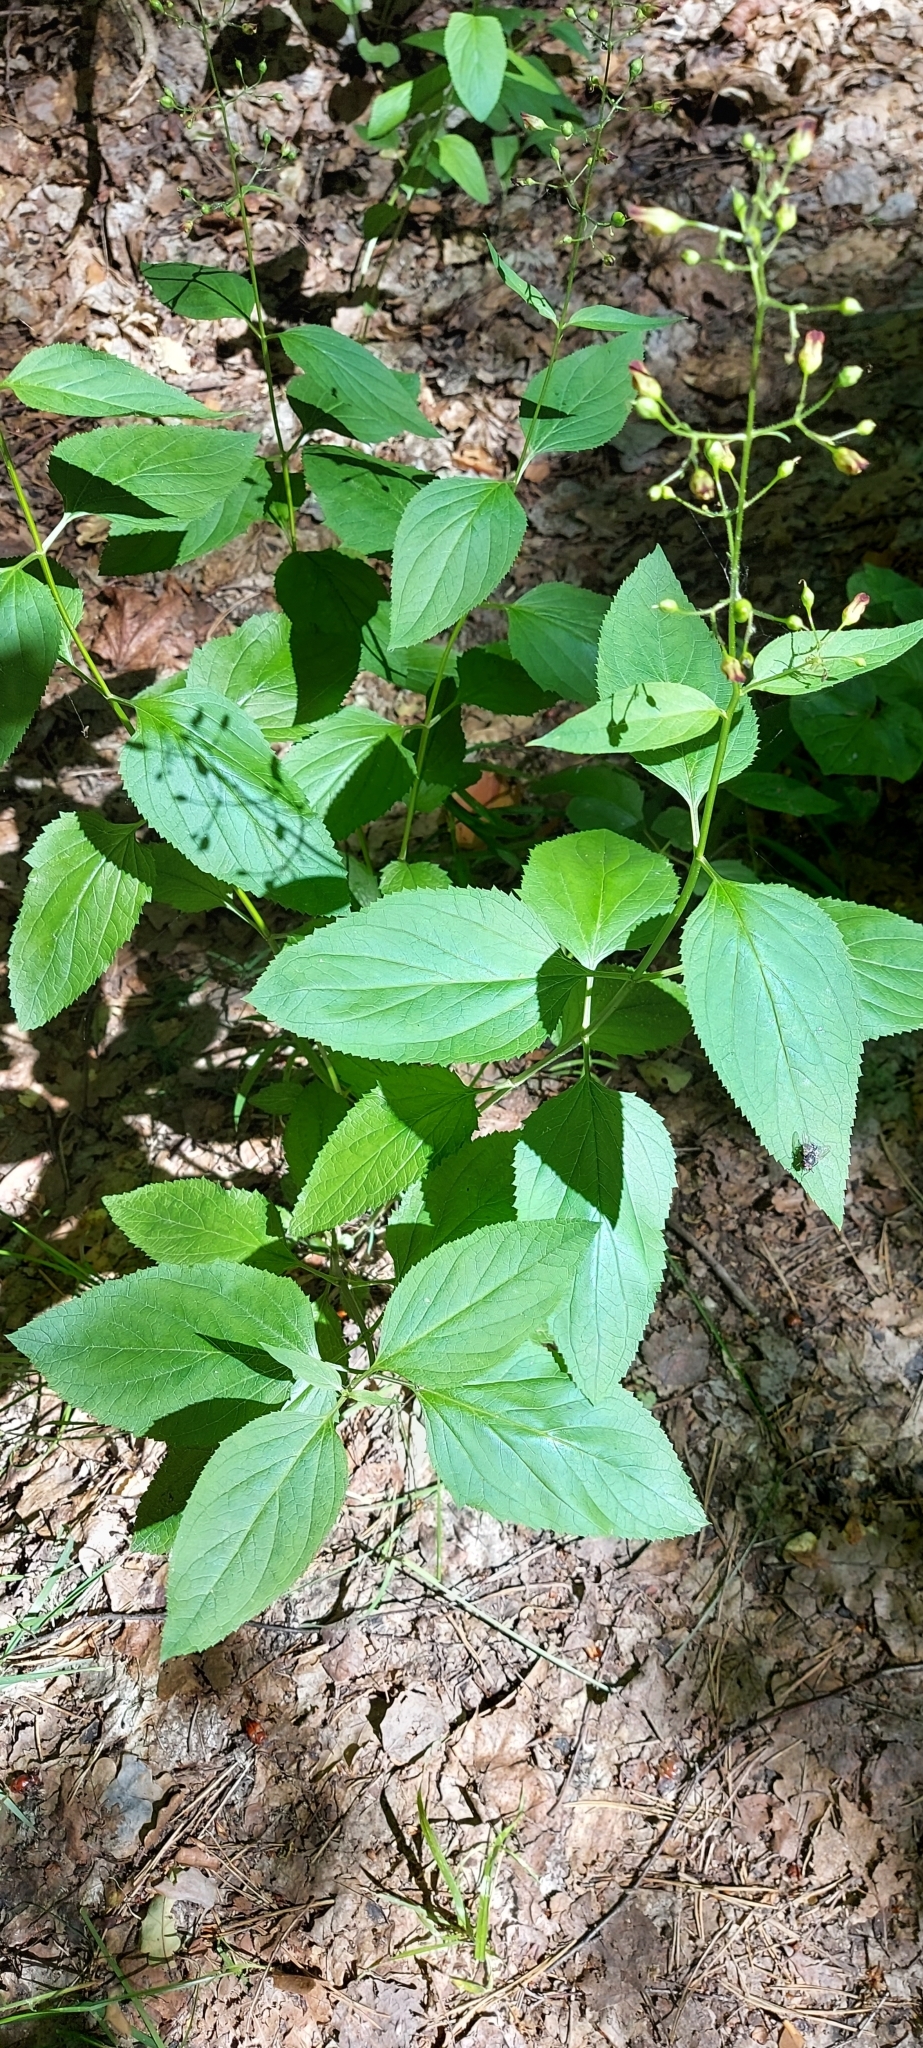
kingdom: Plantae
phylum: Tracheophyta
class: Magnoliopsida
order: Lamiales
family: Scrophulariaceae
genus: Scrophularia
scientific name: Scrophularia nodosa
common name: Common figwort
